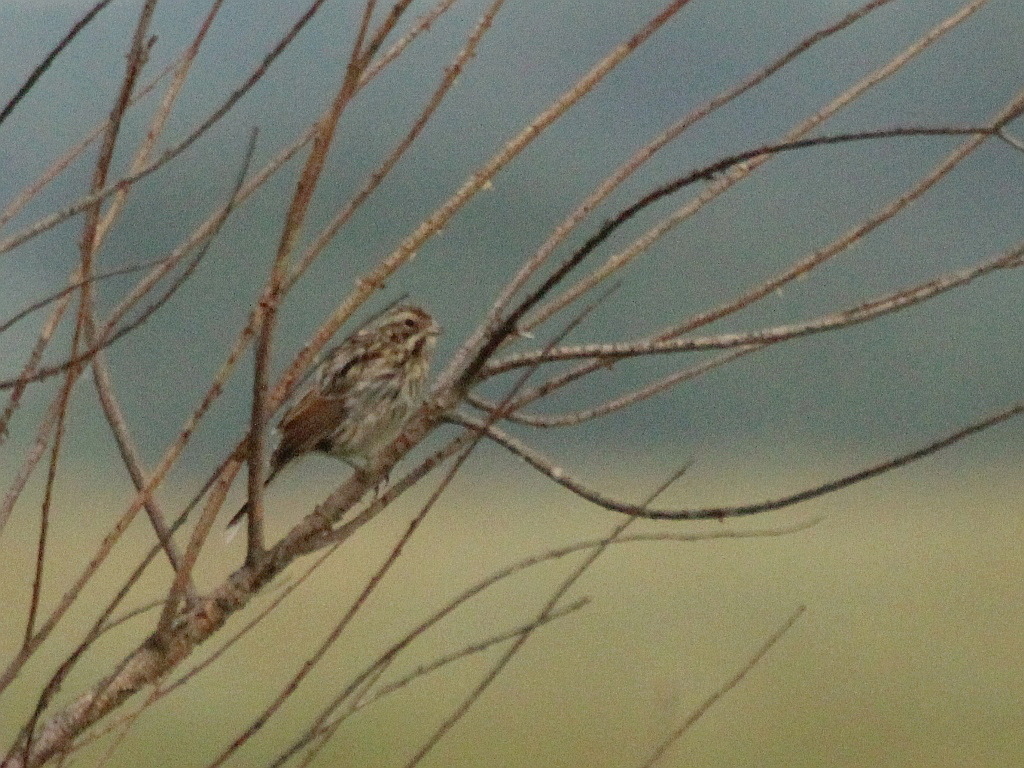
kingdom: Animalia
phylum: Chordata
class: Aves
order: Passeriformes
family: Emberizidae
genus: Emberiza
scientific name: Emberiza schoeniclus
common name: Reed bunting
